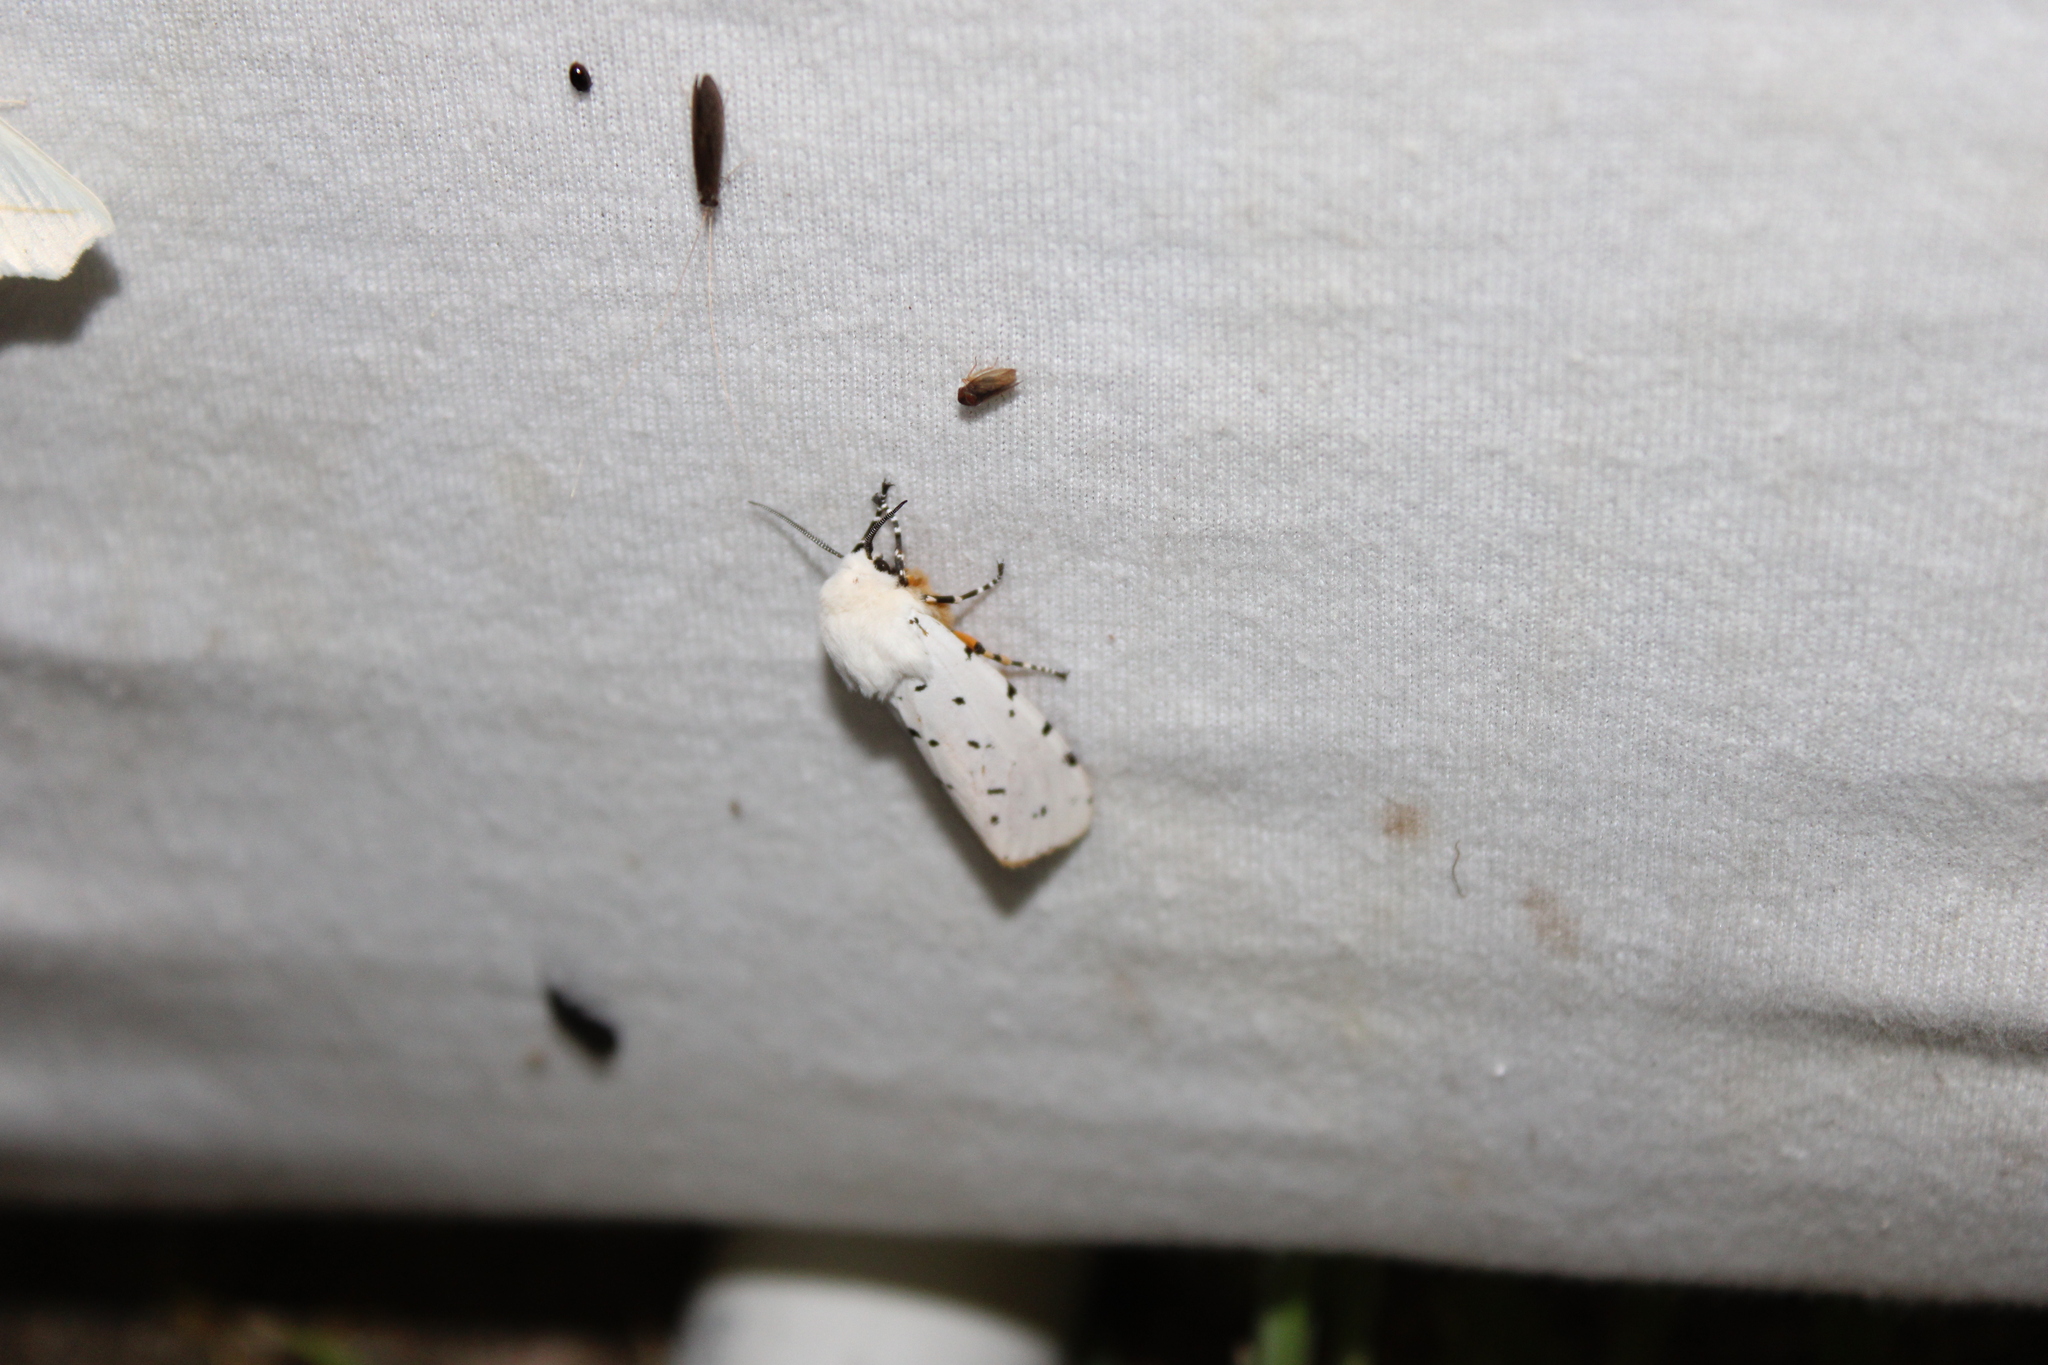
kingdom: Animalia
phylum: Arthropoda
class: Insecta
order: Lepidoptera
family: Erebidae
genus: Estigmene
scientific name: Estigmene acrea
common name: Salt marsh moth
